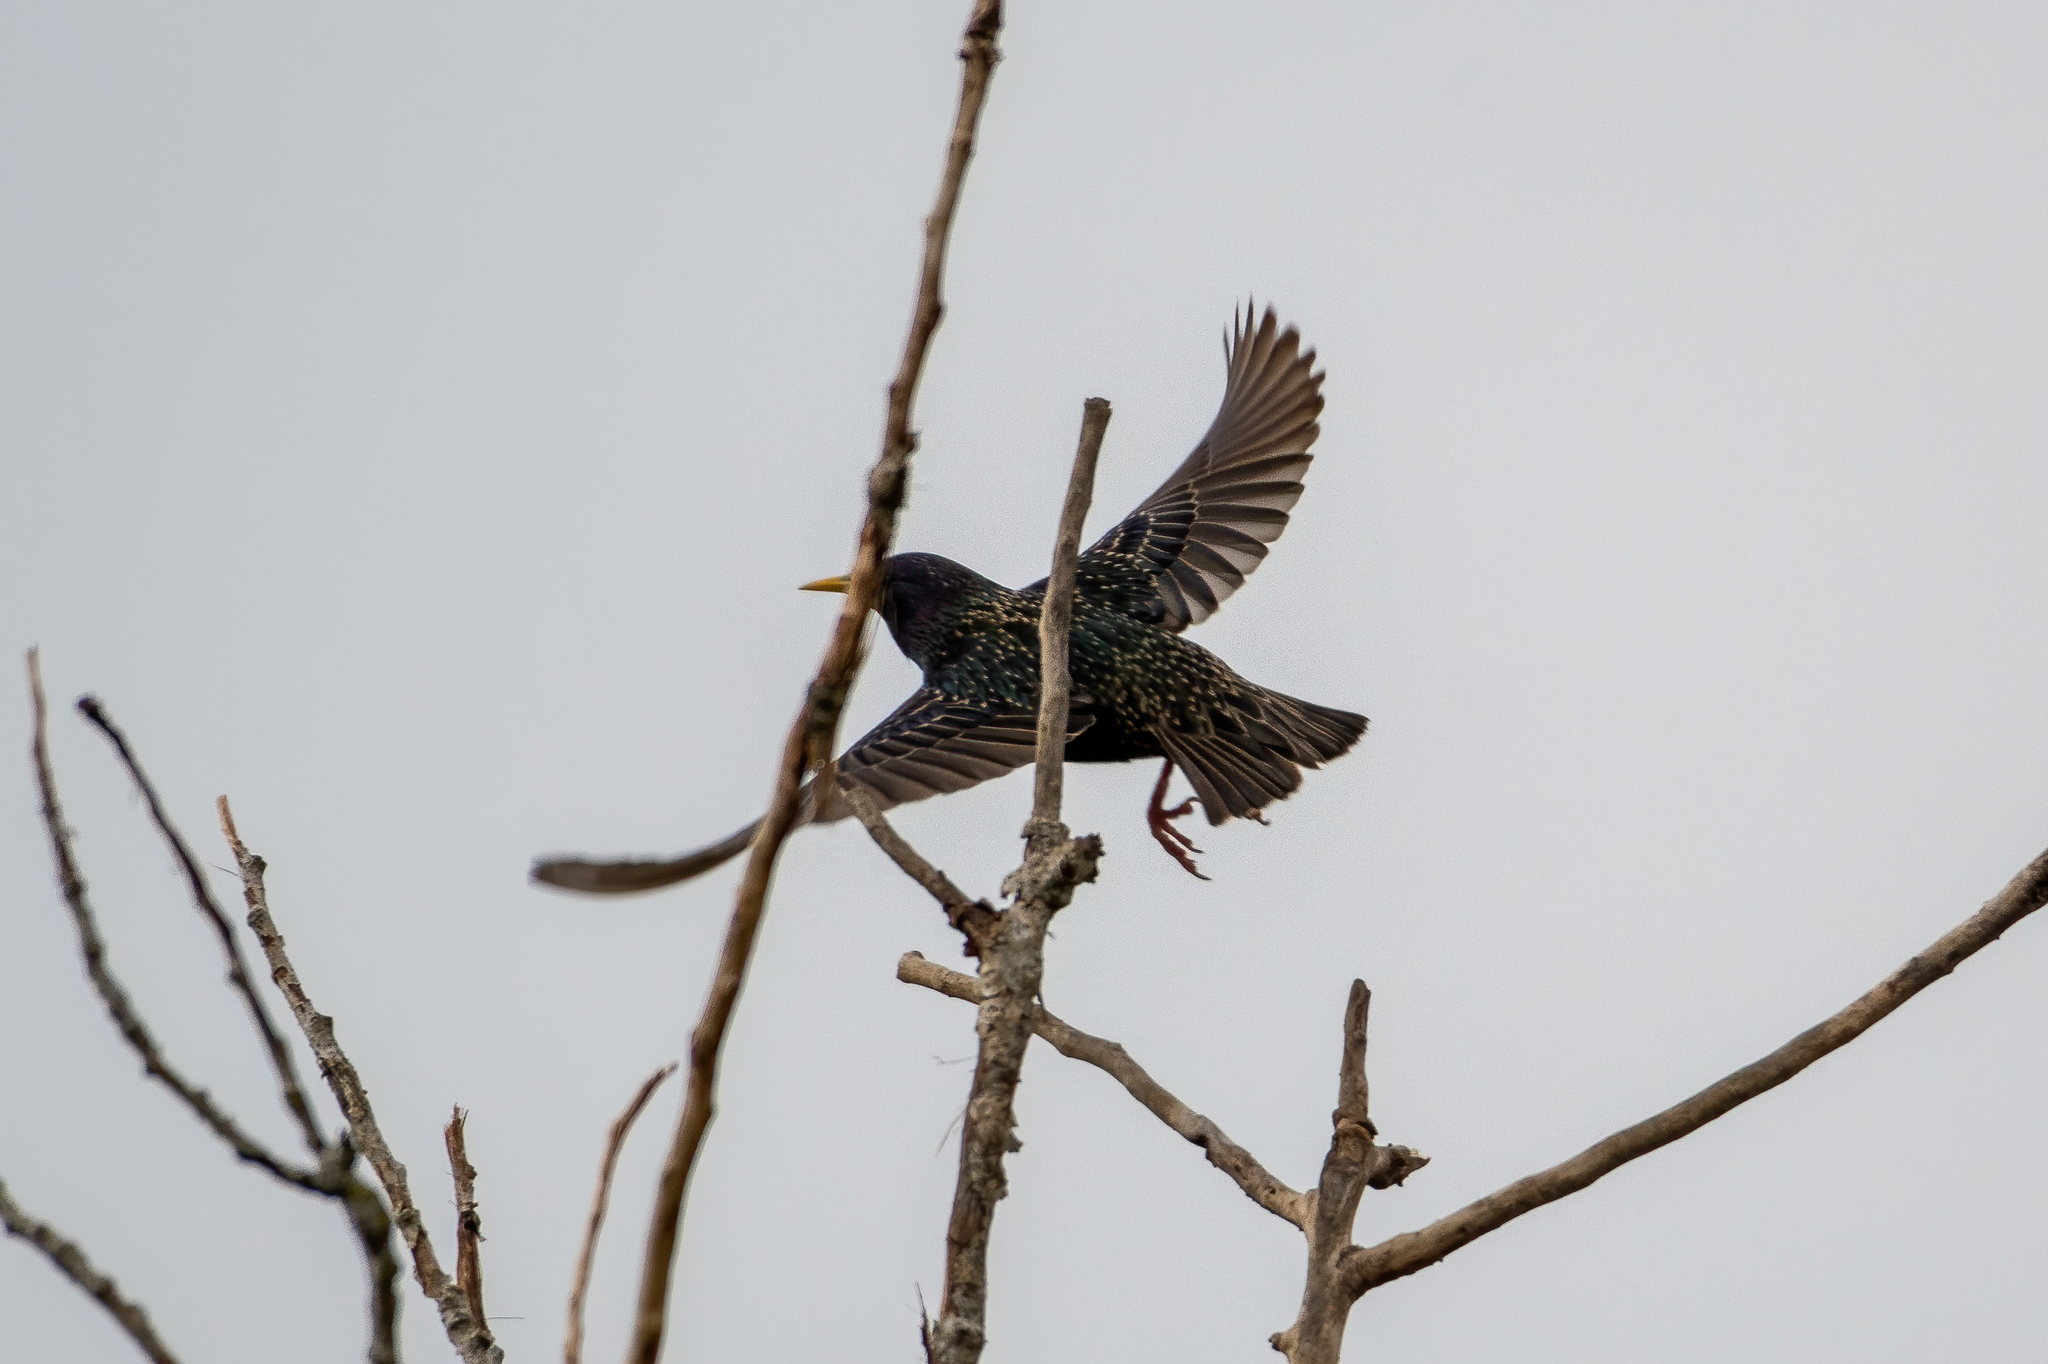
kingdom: Animalia
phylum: Chordata
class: Aves
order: Passeriformes
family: Sturnidae
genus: Sturnus
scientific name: Sturnus vulgaris
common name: Common starling
